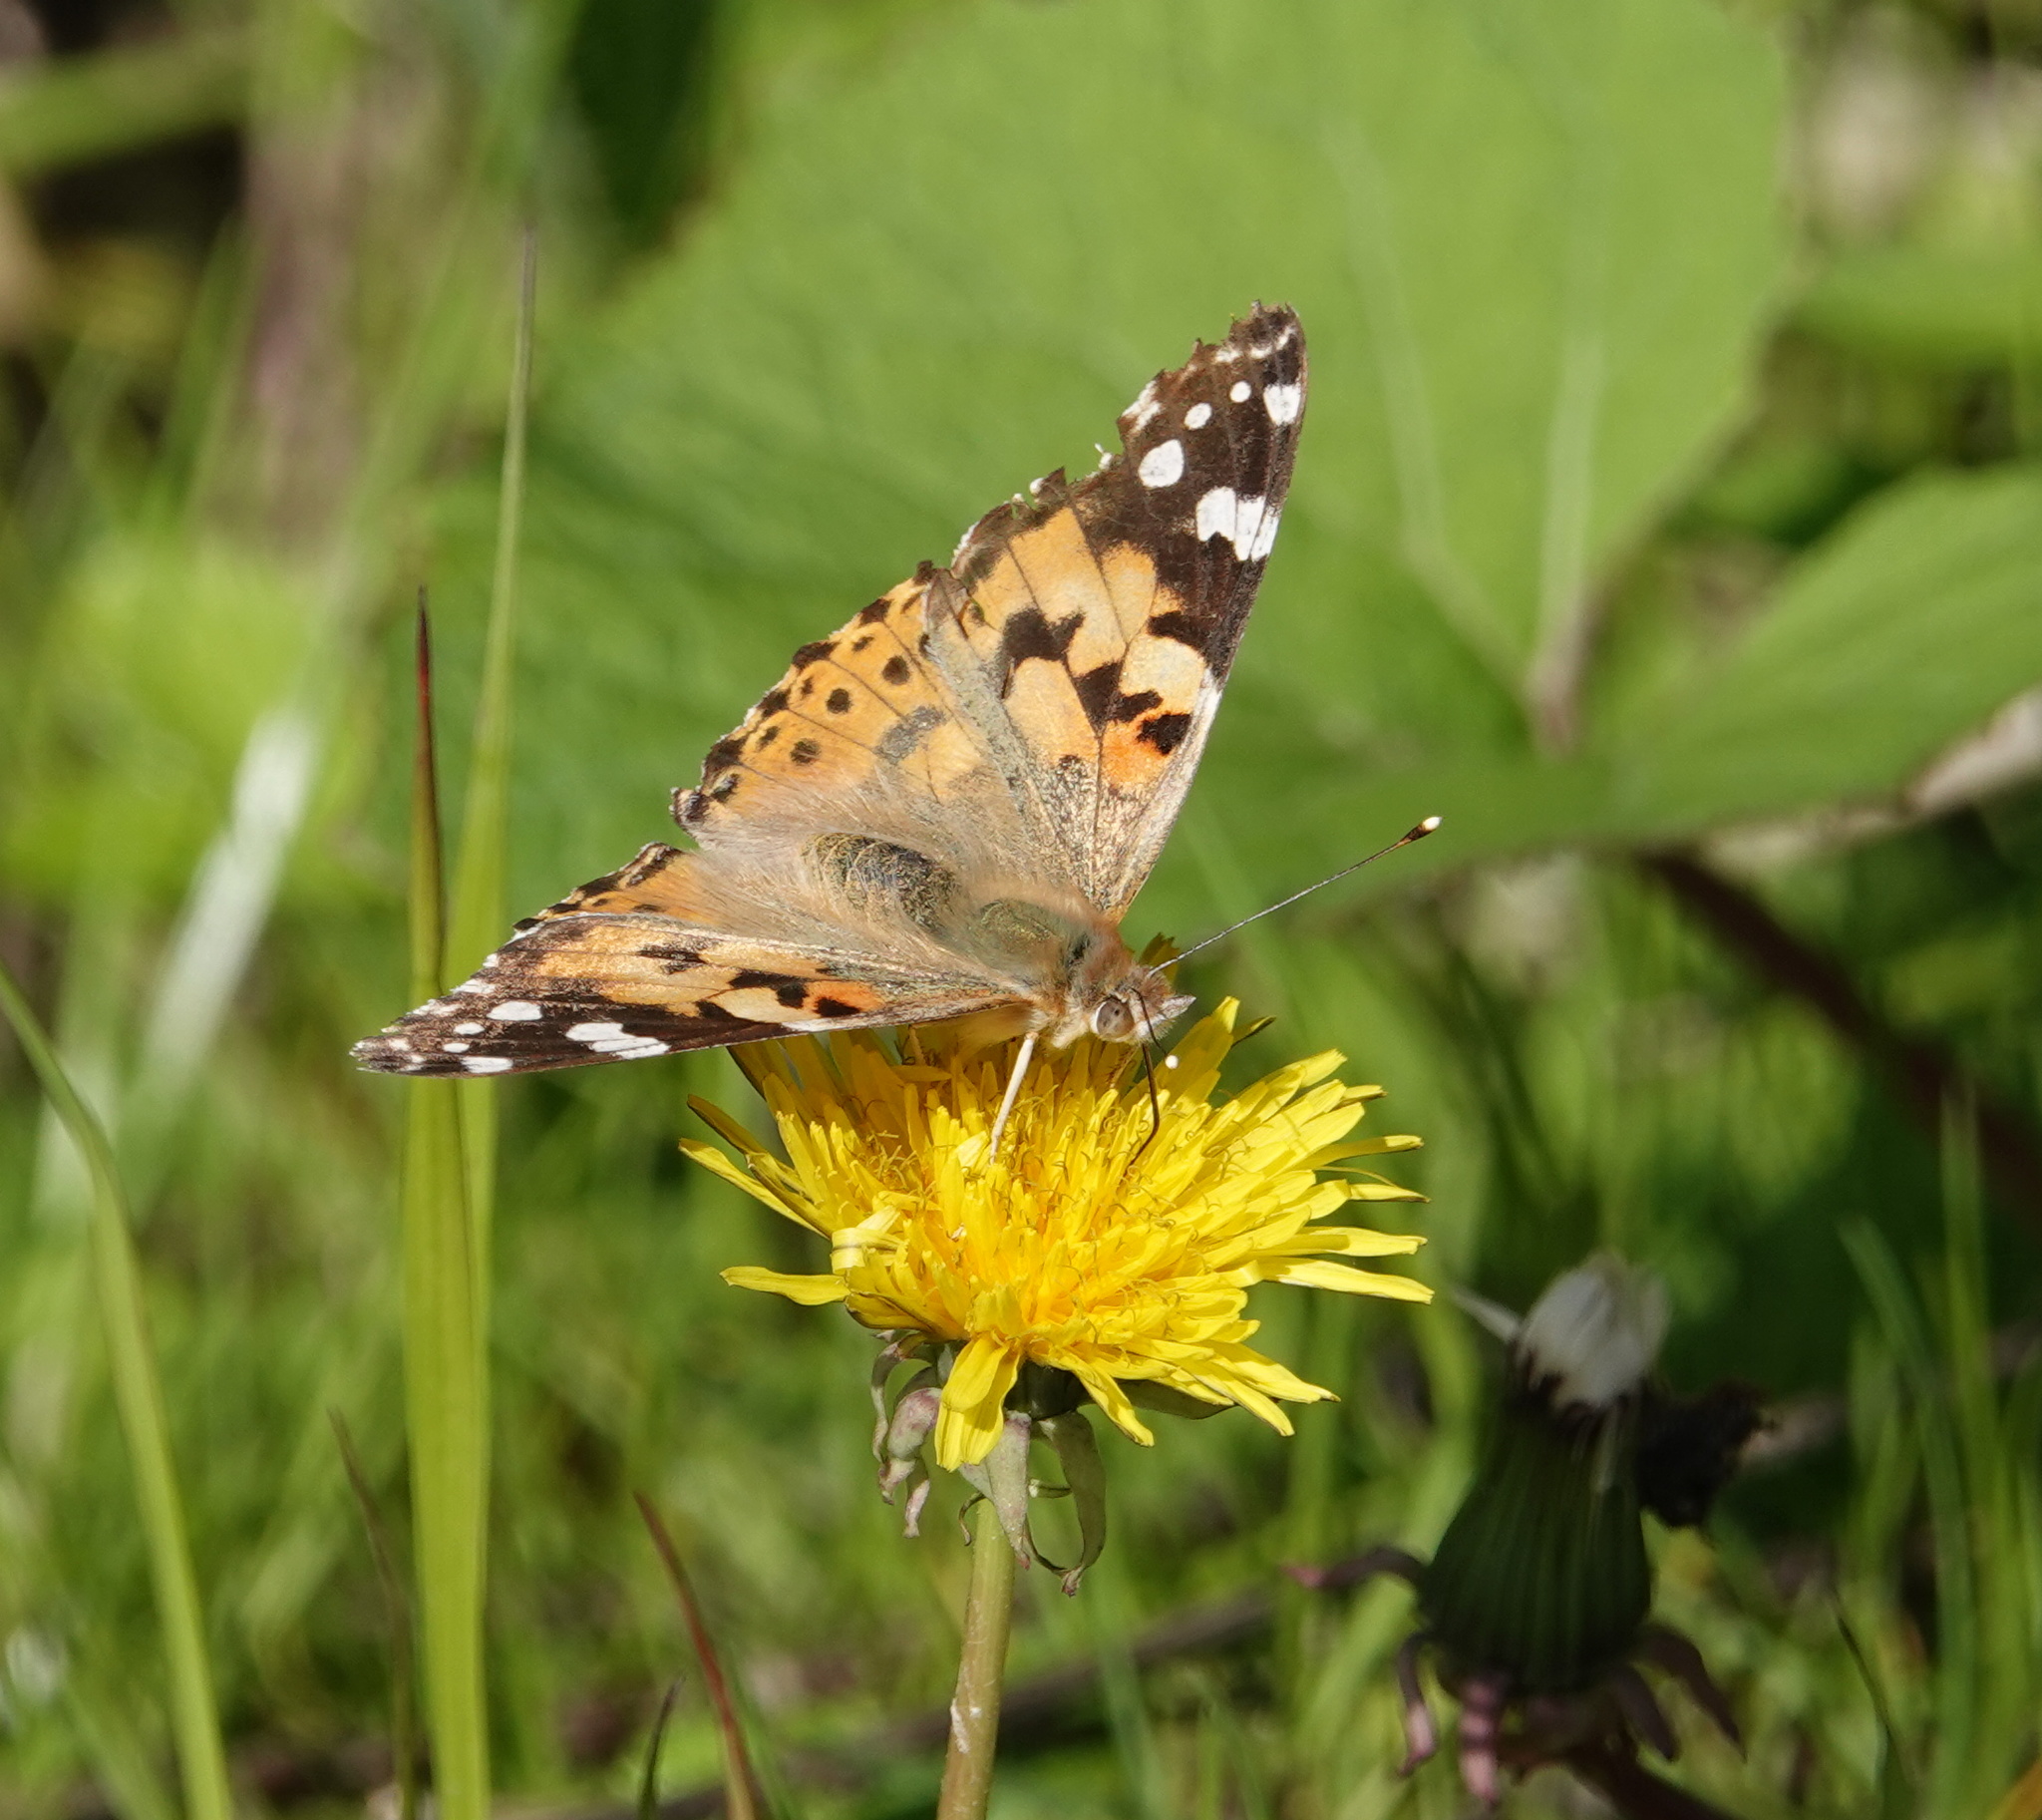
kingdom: Animalia
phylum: Arthropoda
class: Insecta
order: Lepidoptera
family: Nymphalidae
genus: Vanessa
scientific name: Vanessa cardui
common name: Painted lady
